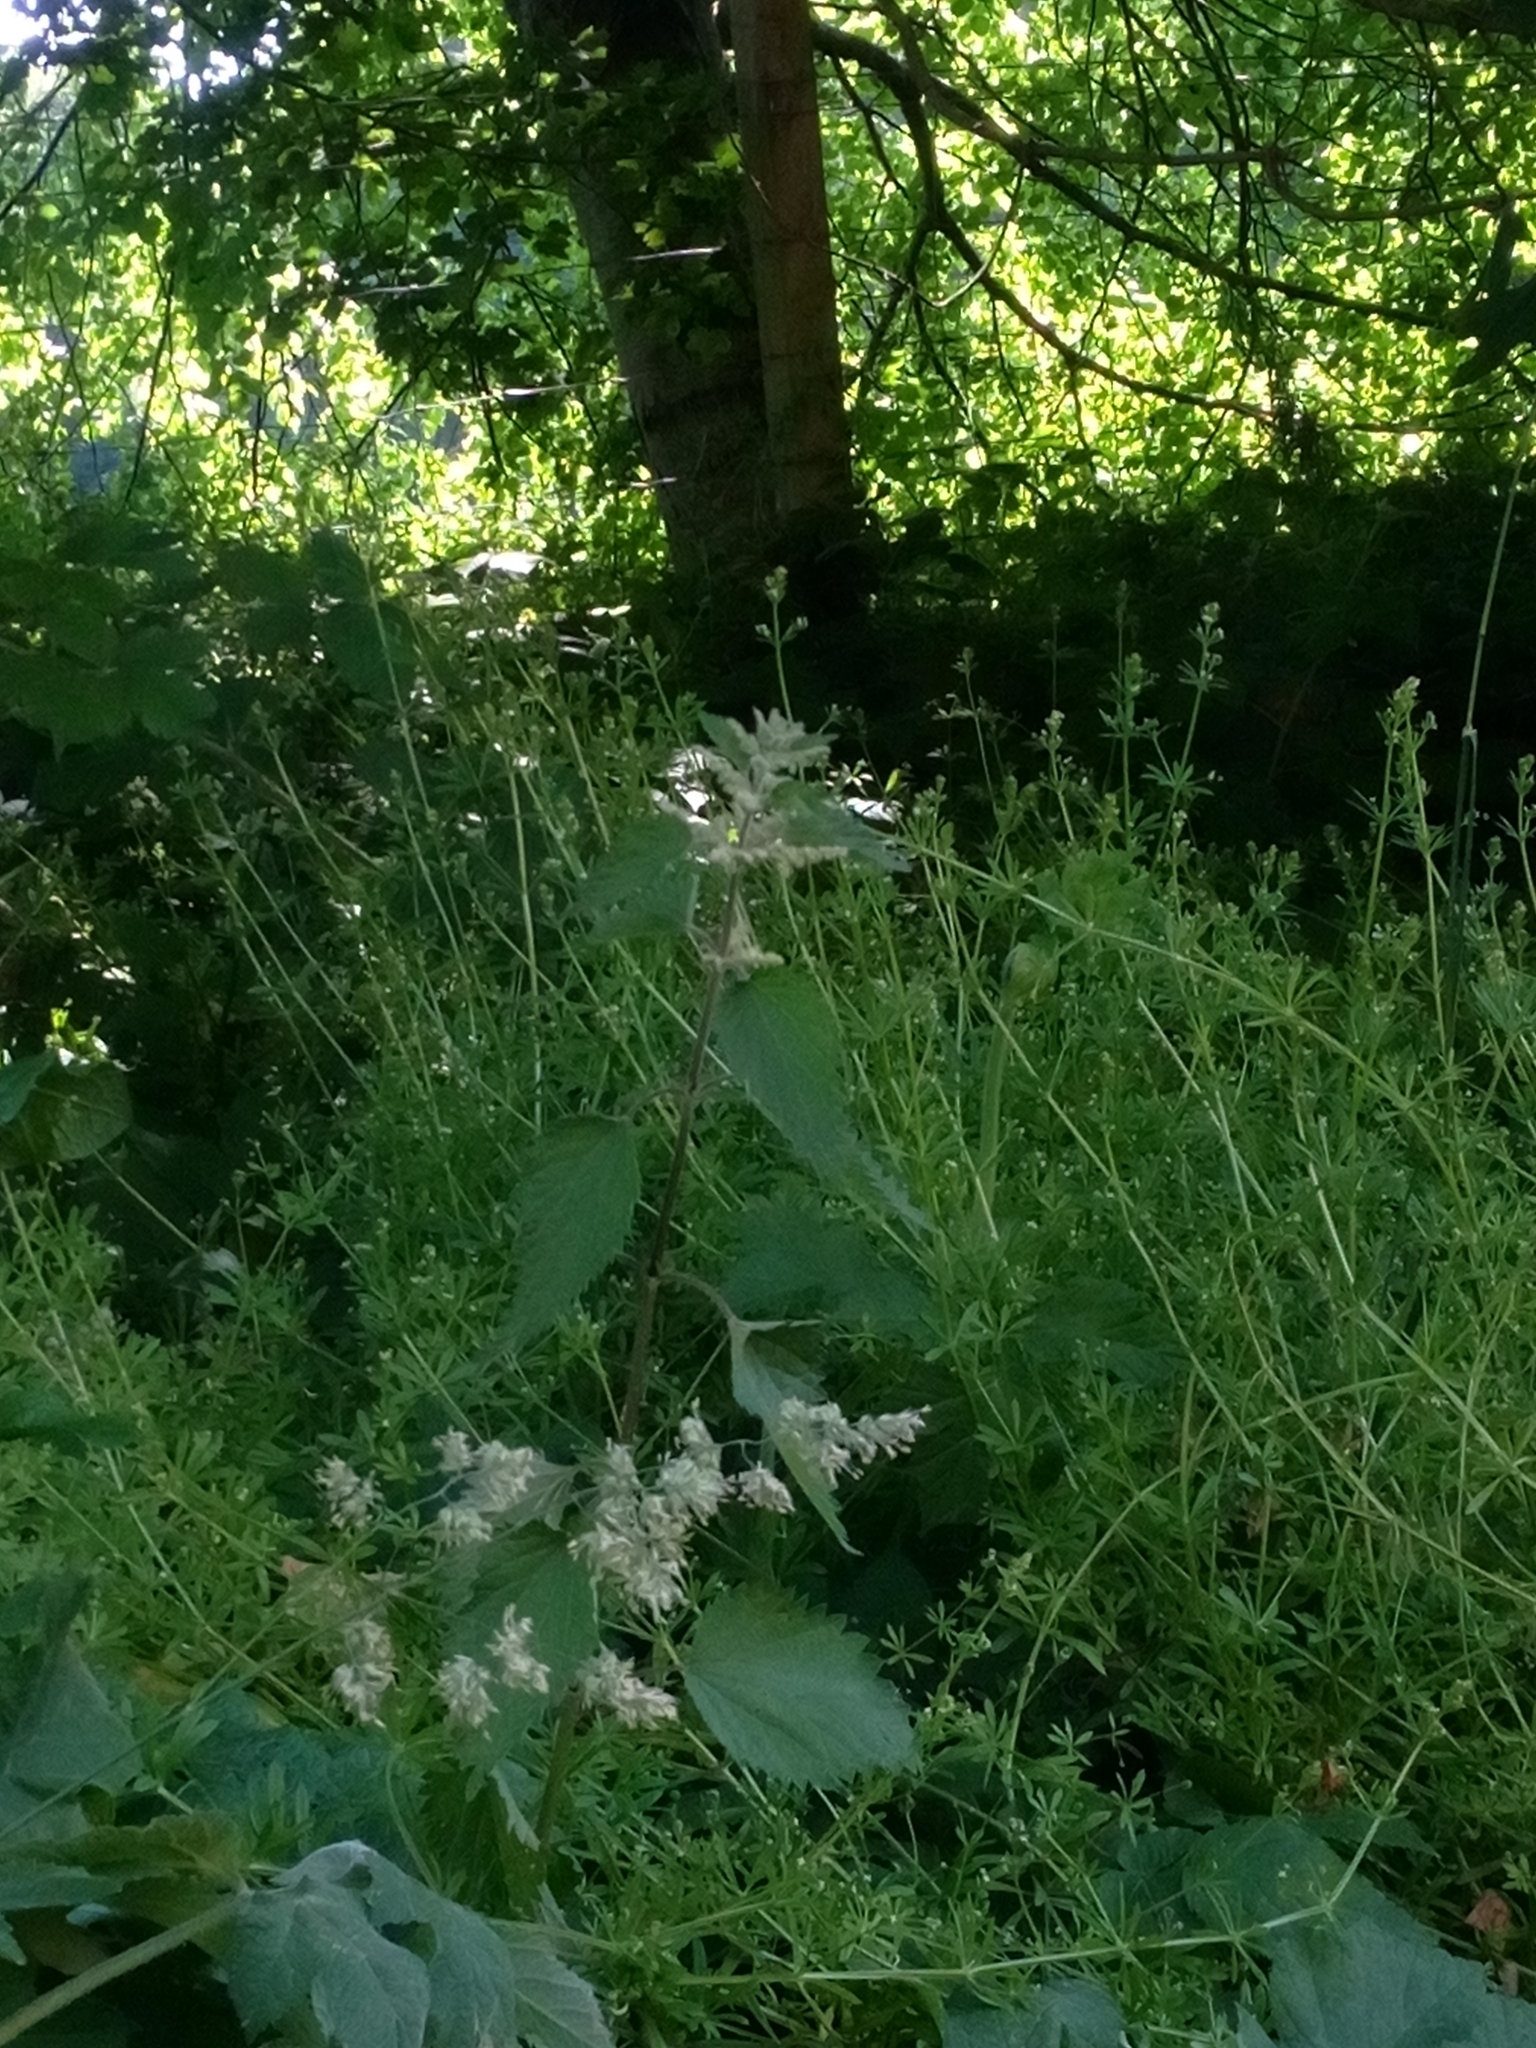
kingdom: Plantae
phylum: Tracheophyta
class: Magnoliopsida
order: Rosales
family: Urticaceae
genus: Urtica
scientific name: Urtica dioica
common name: Common nettle
